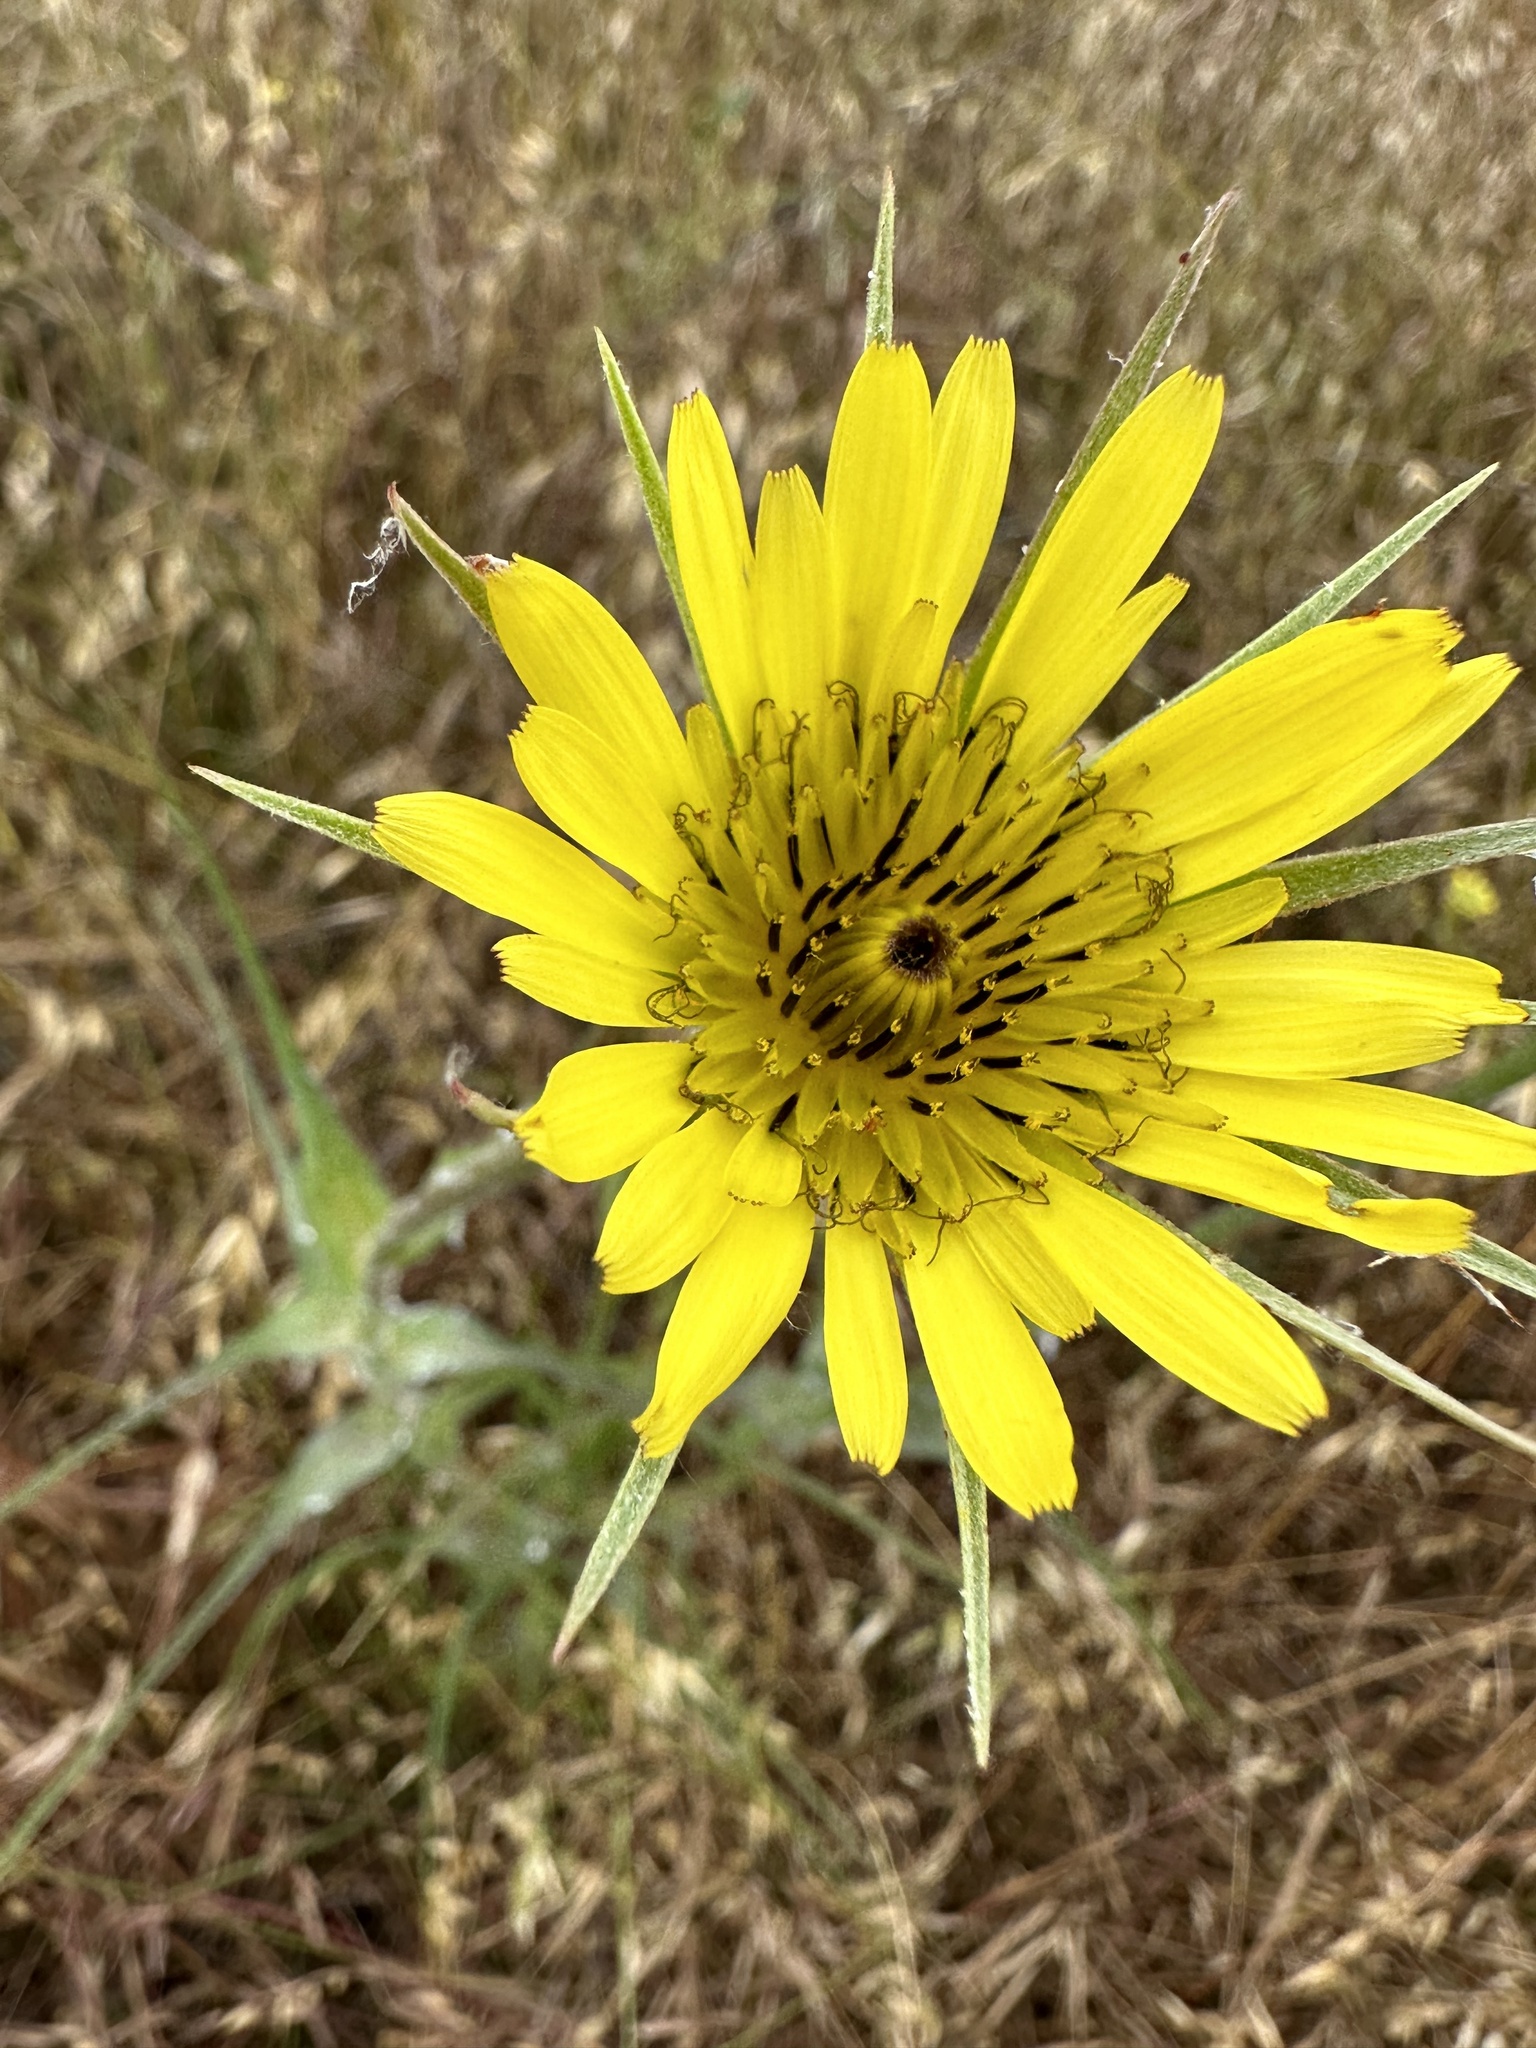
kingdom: Plantae
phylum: Tracheophyta
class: Magnoliopsida
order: Asterales
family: Asteraceae
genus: Tragopogon
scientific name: Tragopogon dubius
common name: Yellow salsify
